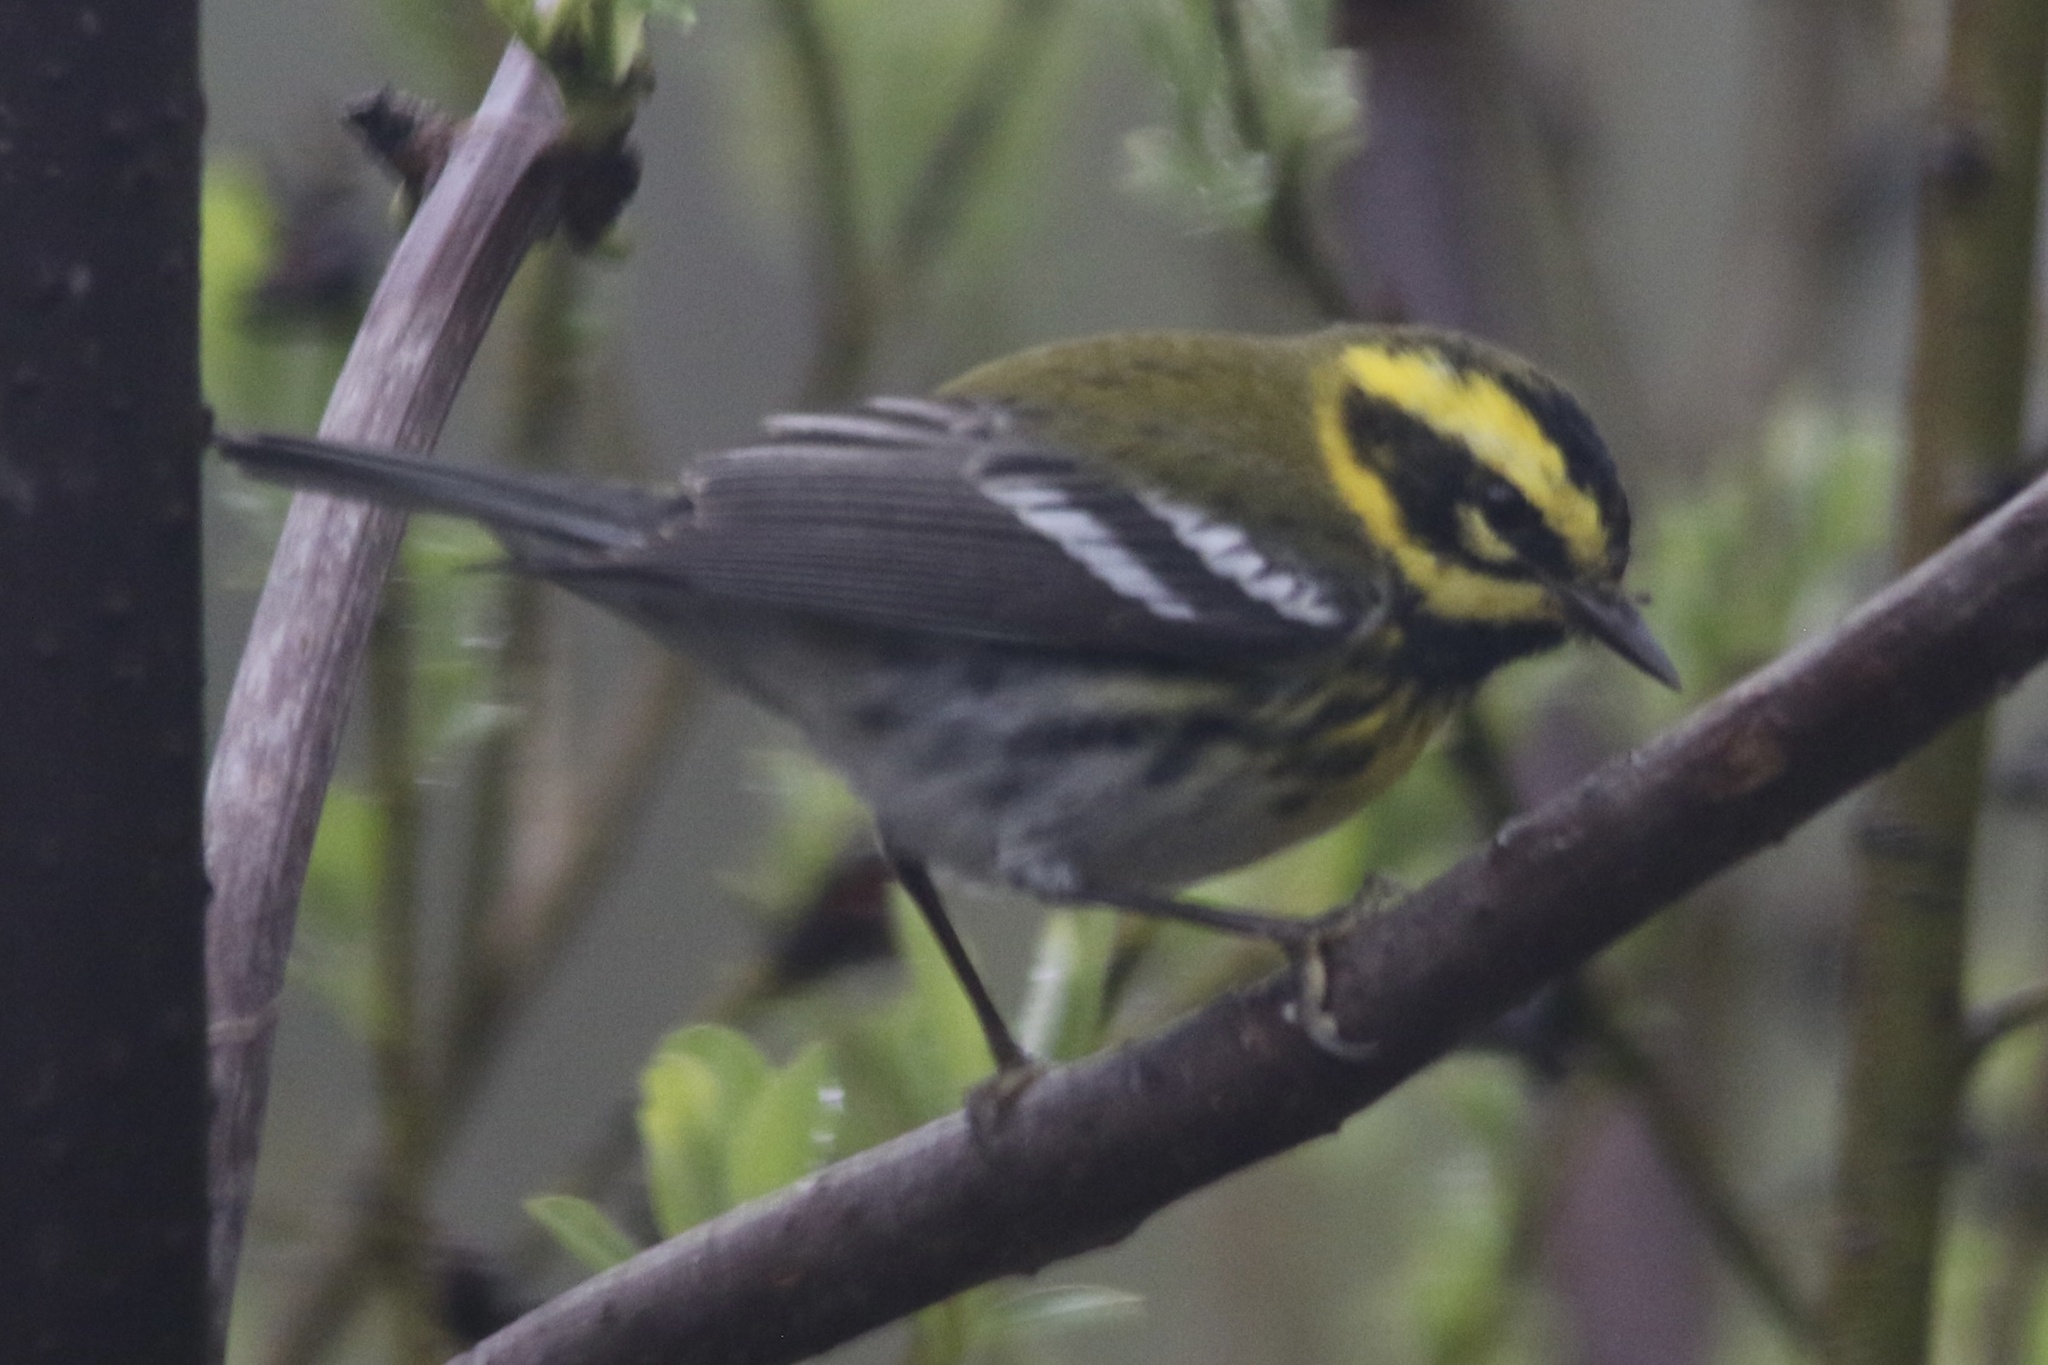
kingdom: Animalia
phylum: Chordata
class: Aves
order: Passeriformes
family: Parulidae
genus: Setophaga
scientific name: Setophaga townsendi
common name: Townsend's warbler
